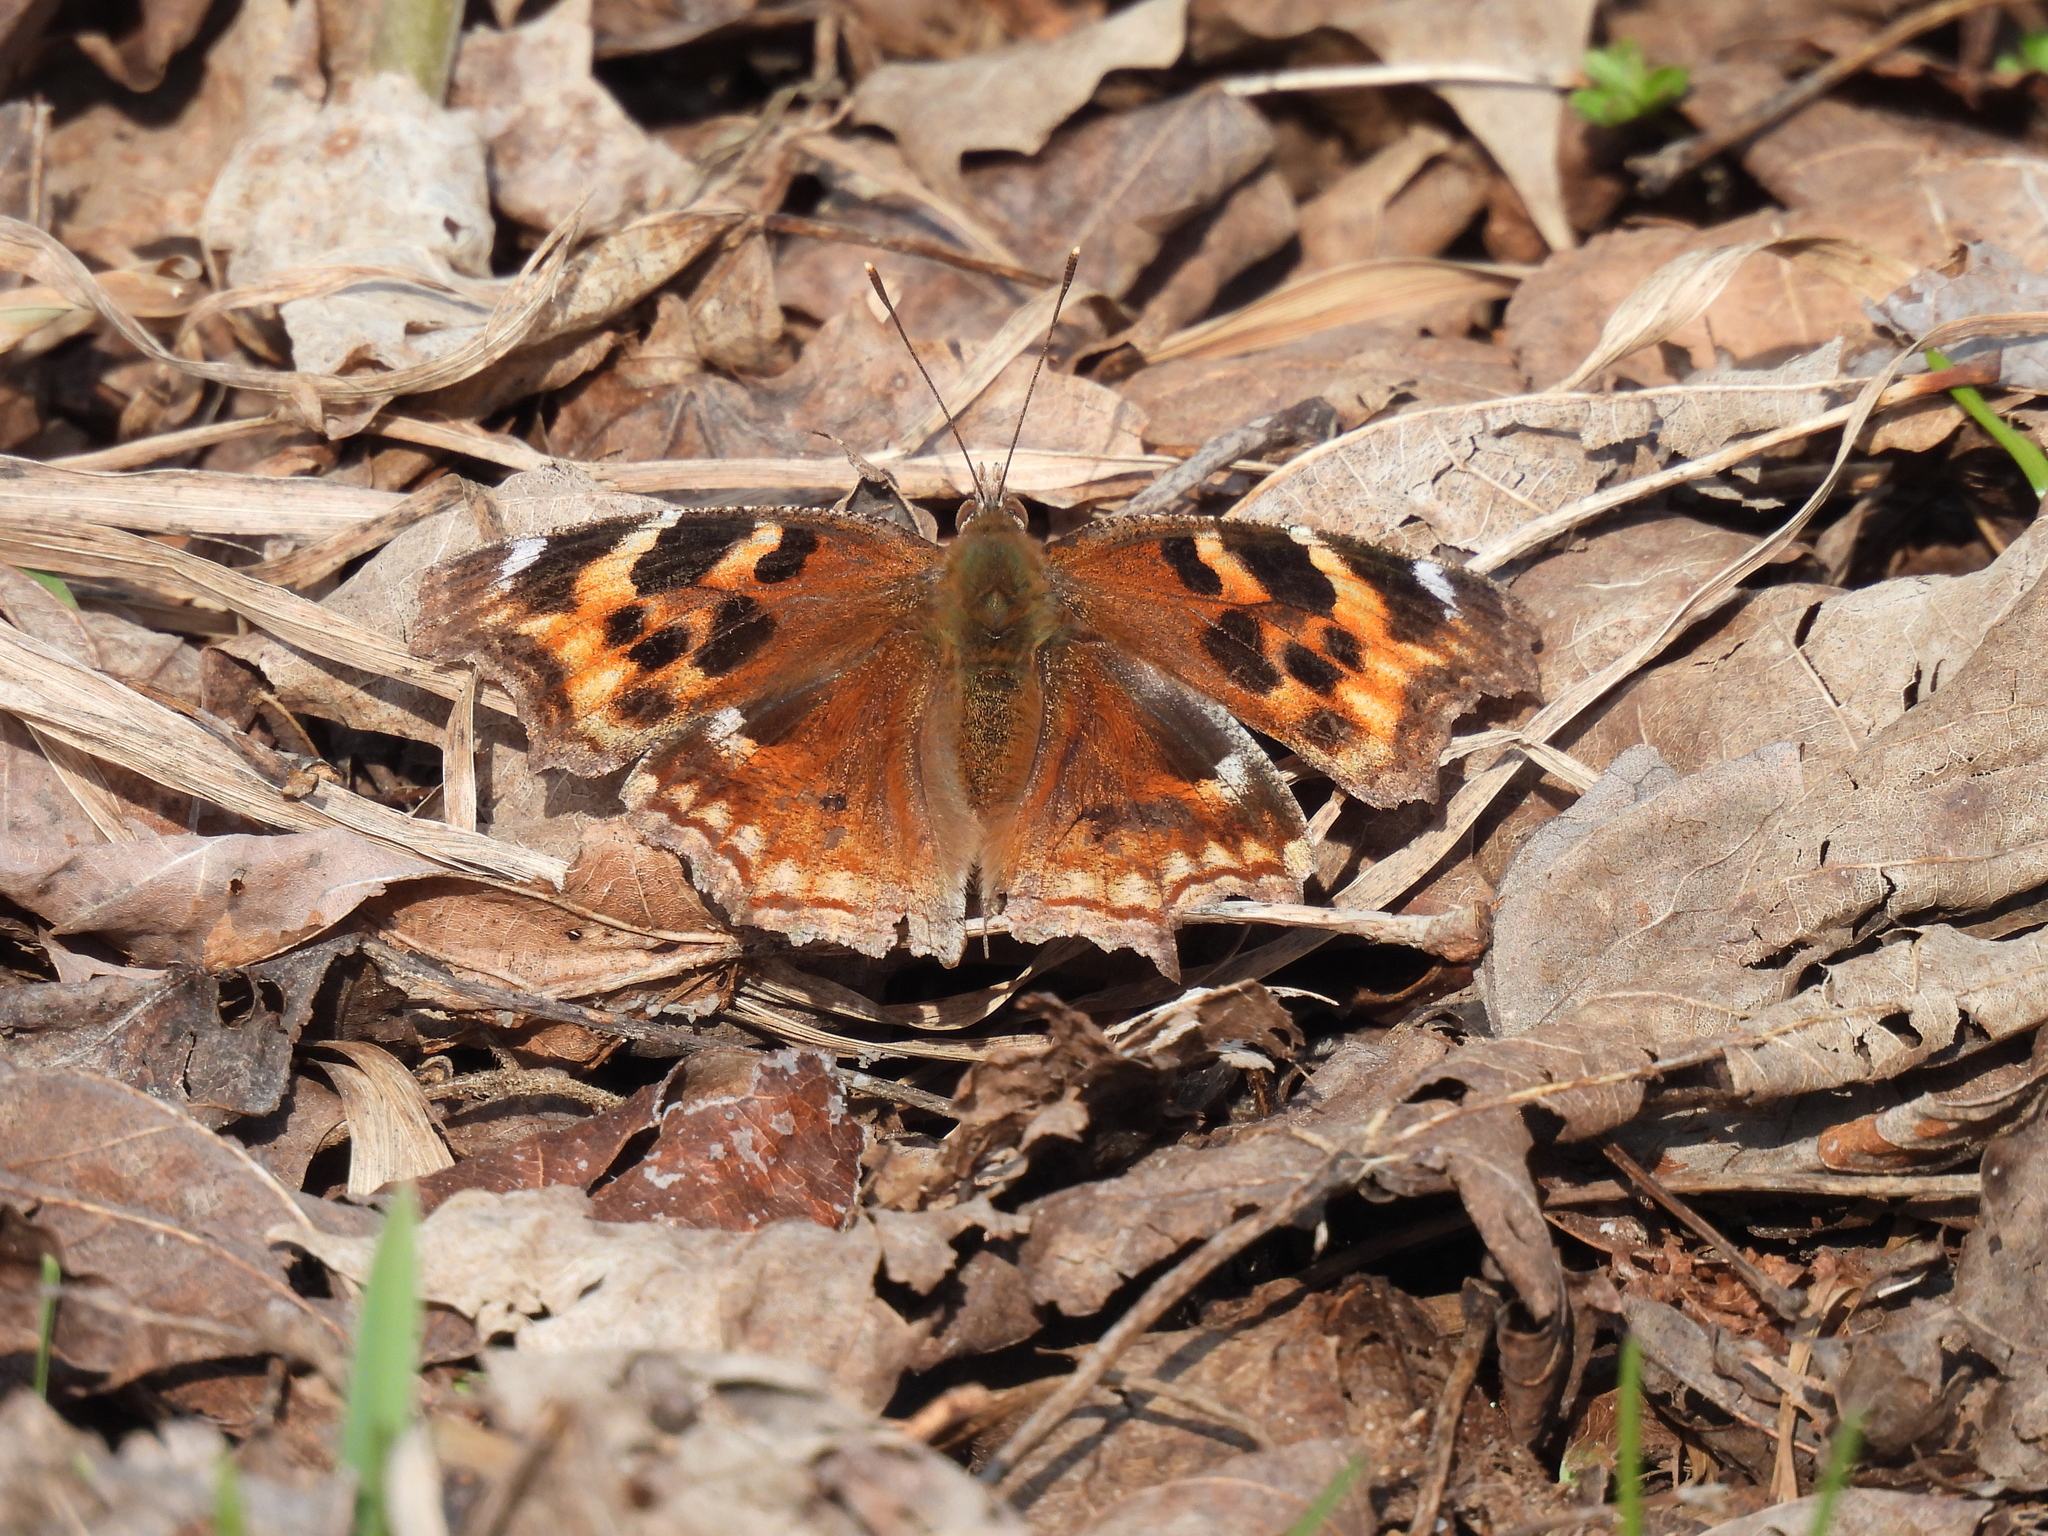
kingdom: Animalia
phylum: Arthropoda
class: Insecta
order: Lepidoptera
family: Nymphalidae
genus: Polygonia
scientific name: Polygonia vaualbum
